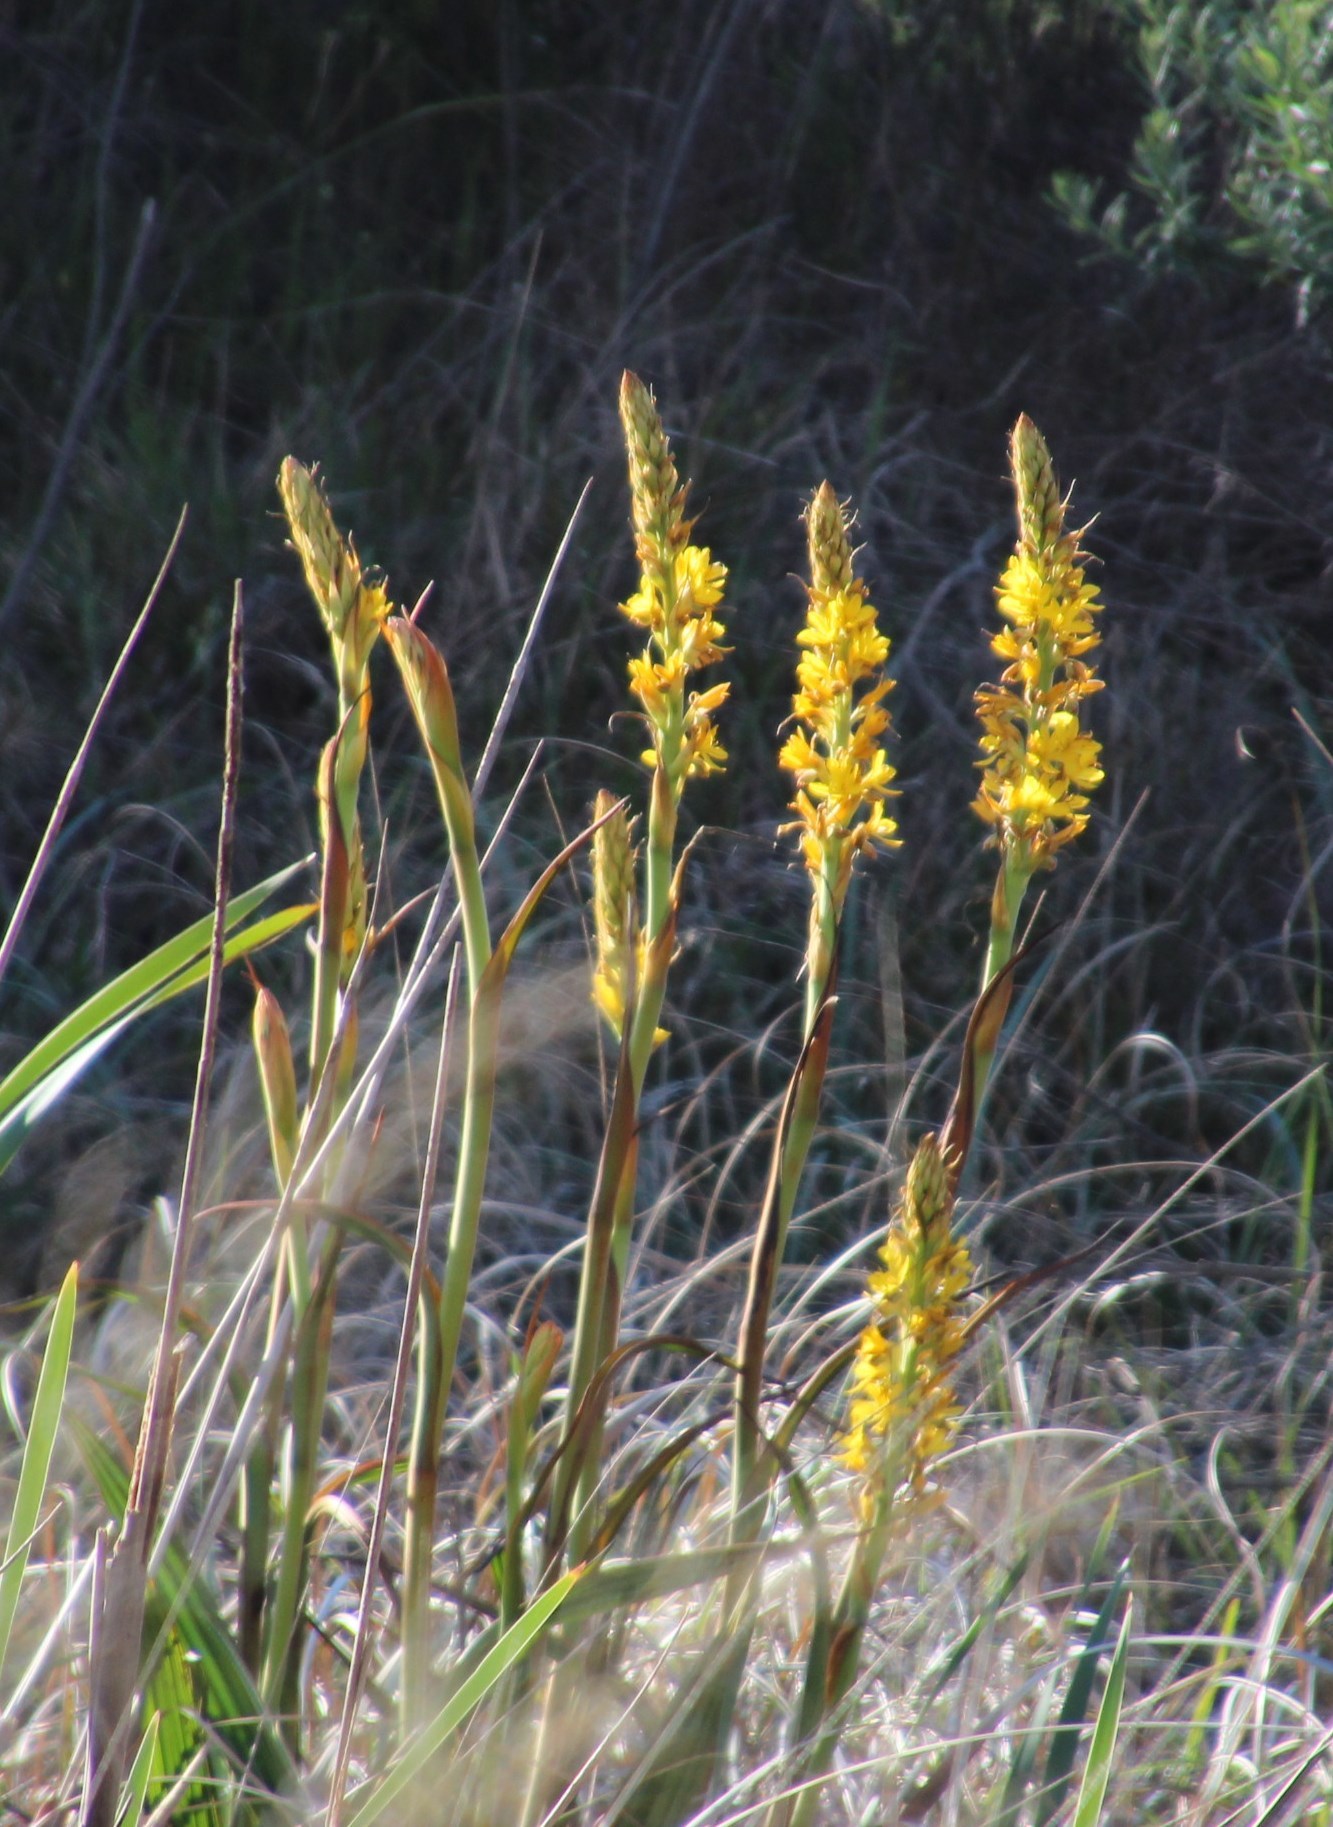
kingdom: Plantae
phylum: Tracheophyta
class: Liliopsida
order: Commelinales
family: Haemodoraceae
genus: Wachendorfia
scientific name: Wachendorfia thyrsiflora
